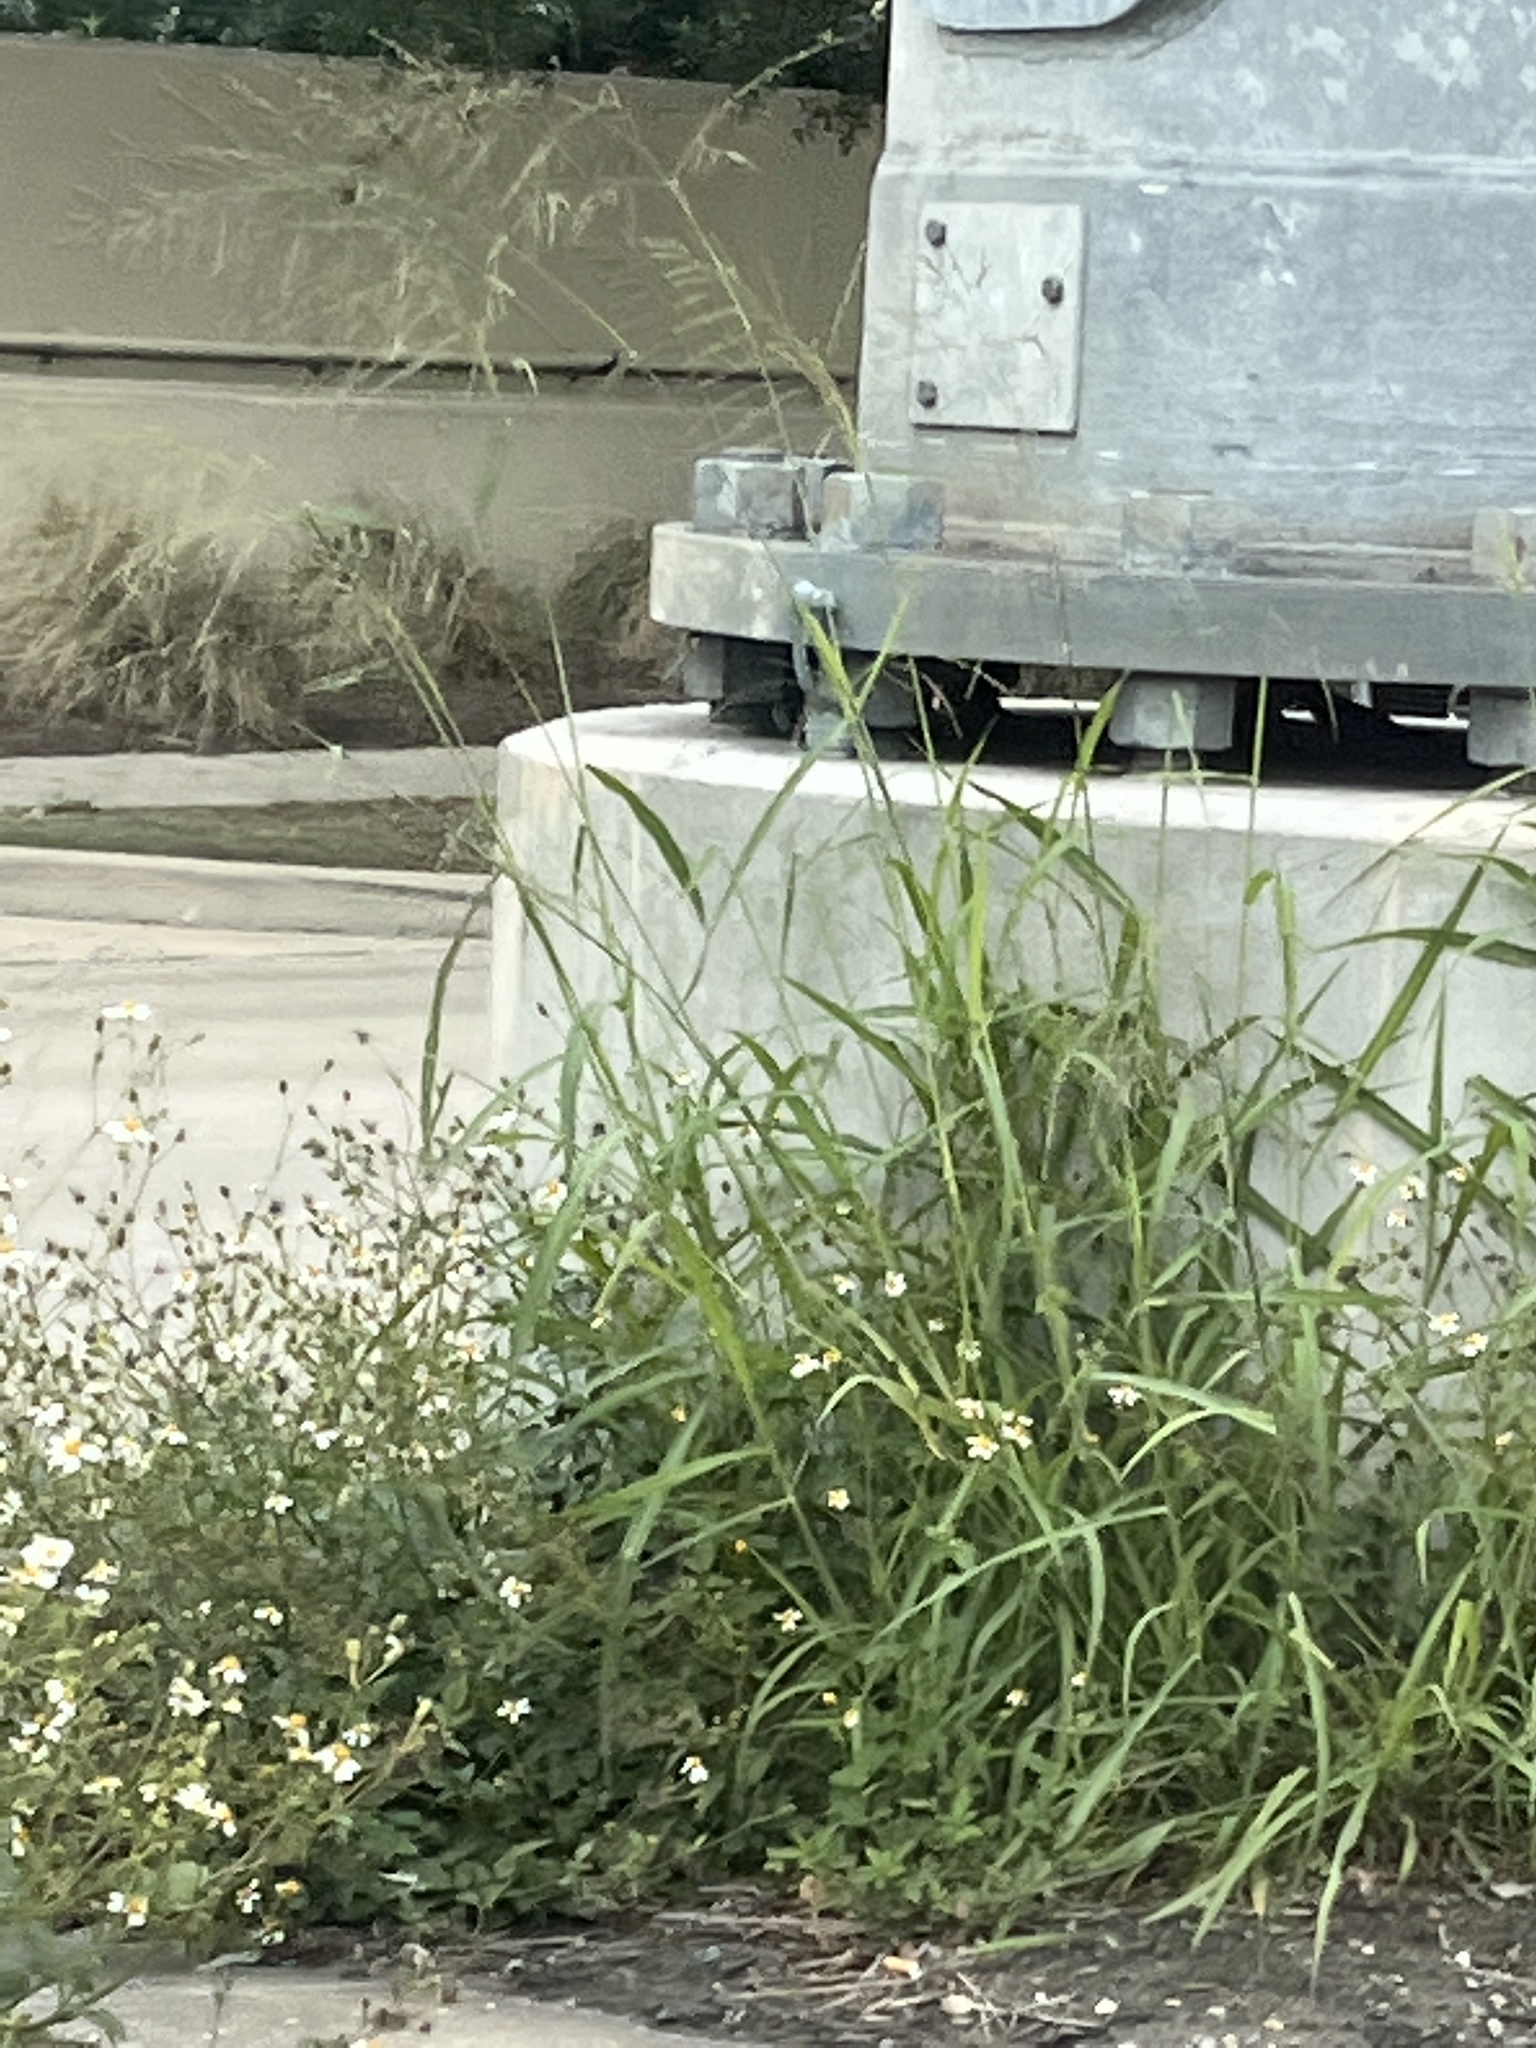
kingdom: Plantae
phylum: Tracheophyta
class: Liliopsida
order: Poales
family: Poaceae
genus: Megathyrsus
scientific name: Megathyrsus maximus
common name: Guineagrass
